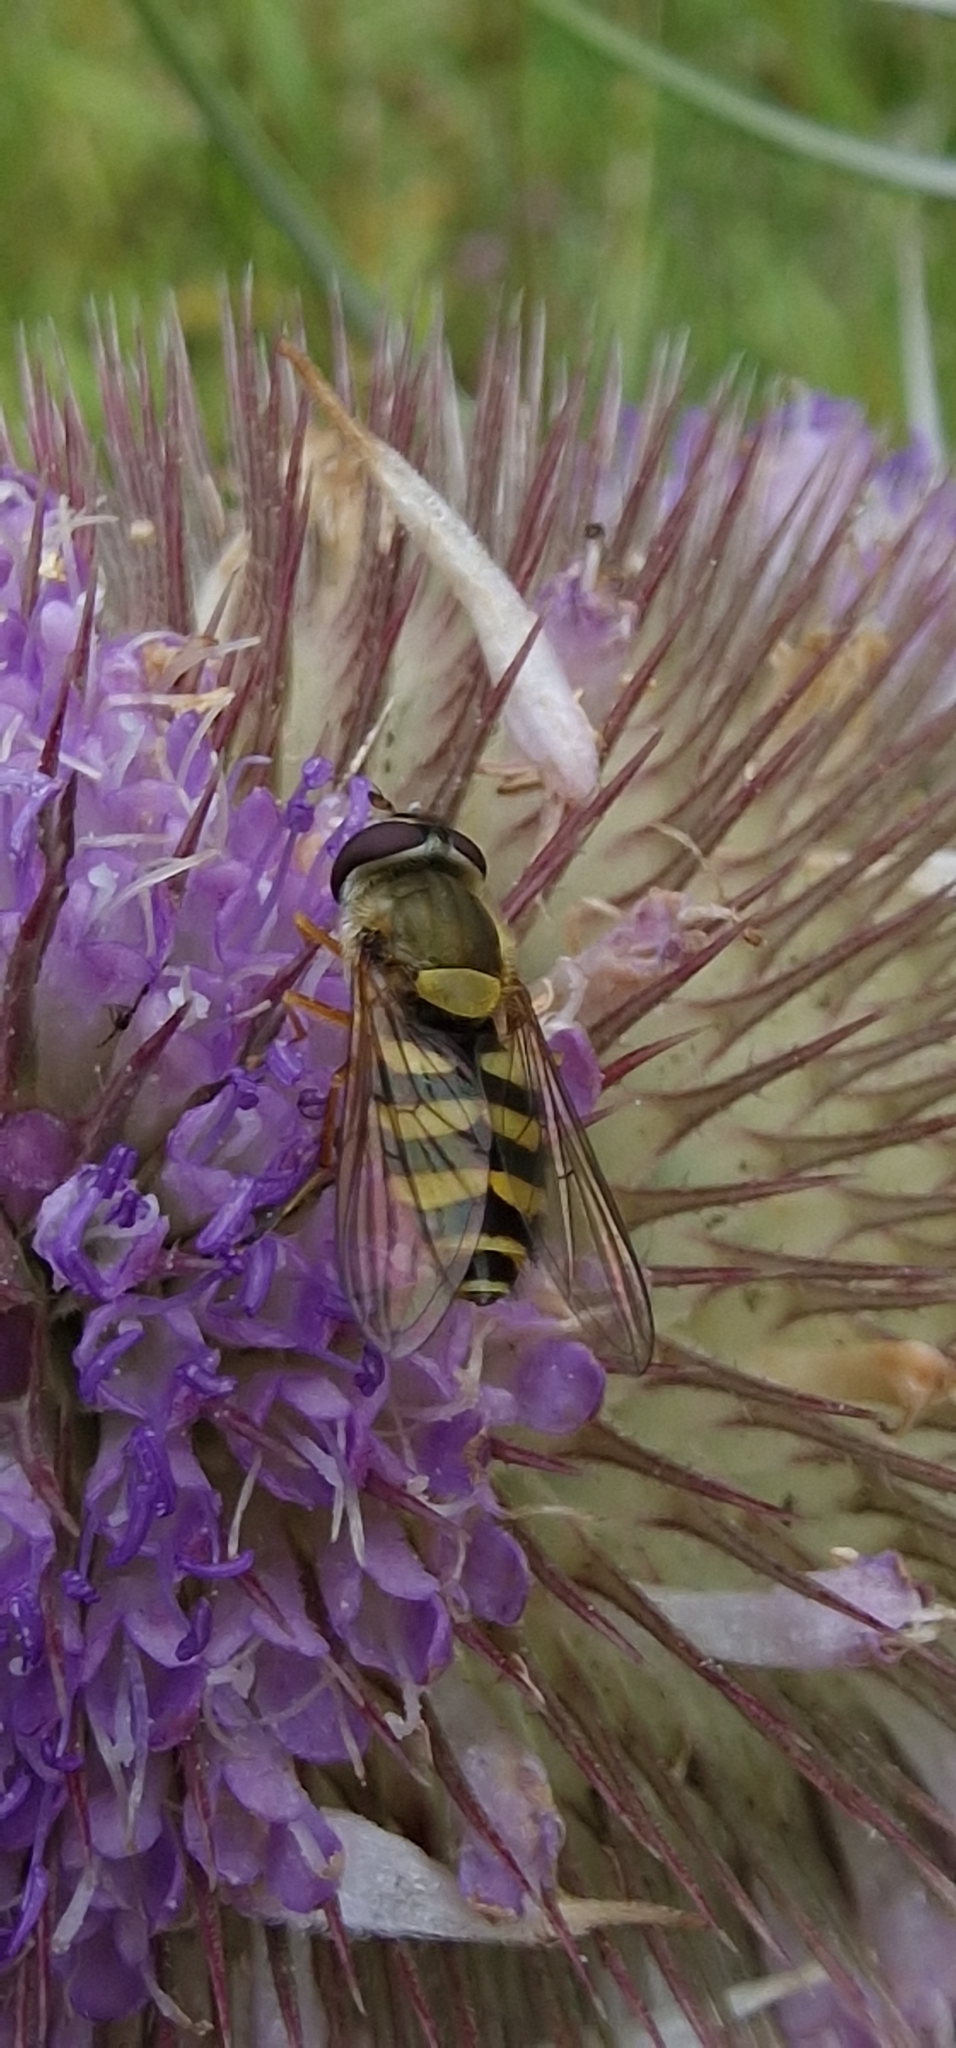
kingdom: Animalia
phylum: Arthropoda
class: Insecta
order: Diptera
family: Syrphidae
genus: Syrphus
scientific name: Syrphus ribesii
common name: Common flower fly
